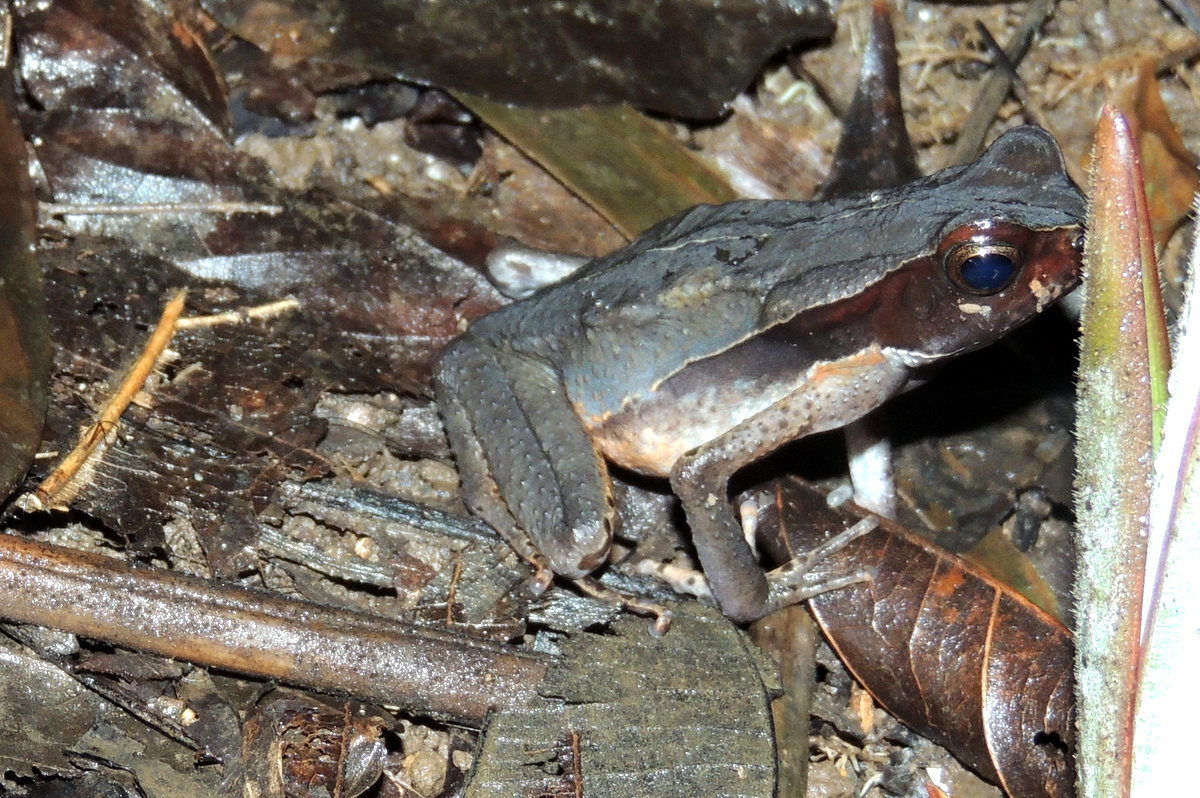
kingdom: Animalia
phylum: Chordata
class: Amphibia
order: Anura
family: Bufonidae
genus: Rhaebo
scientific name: Rhaebo haematiticus
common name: Truando toad
